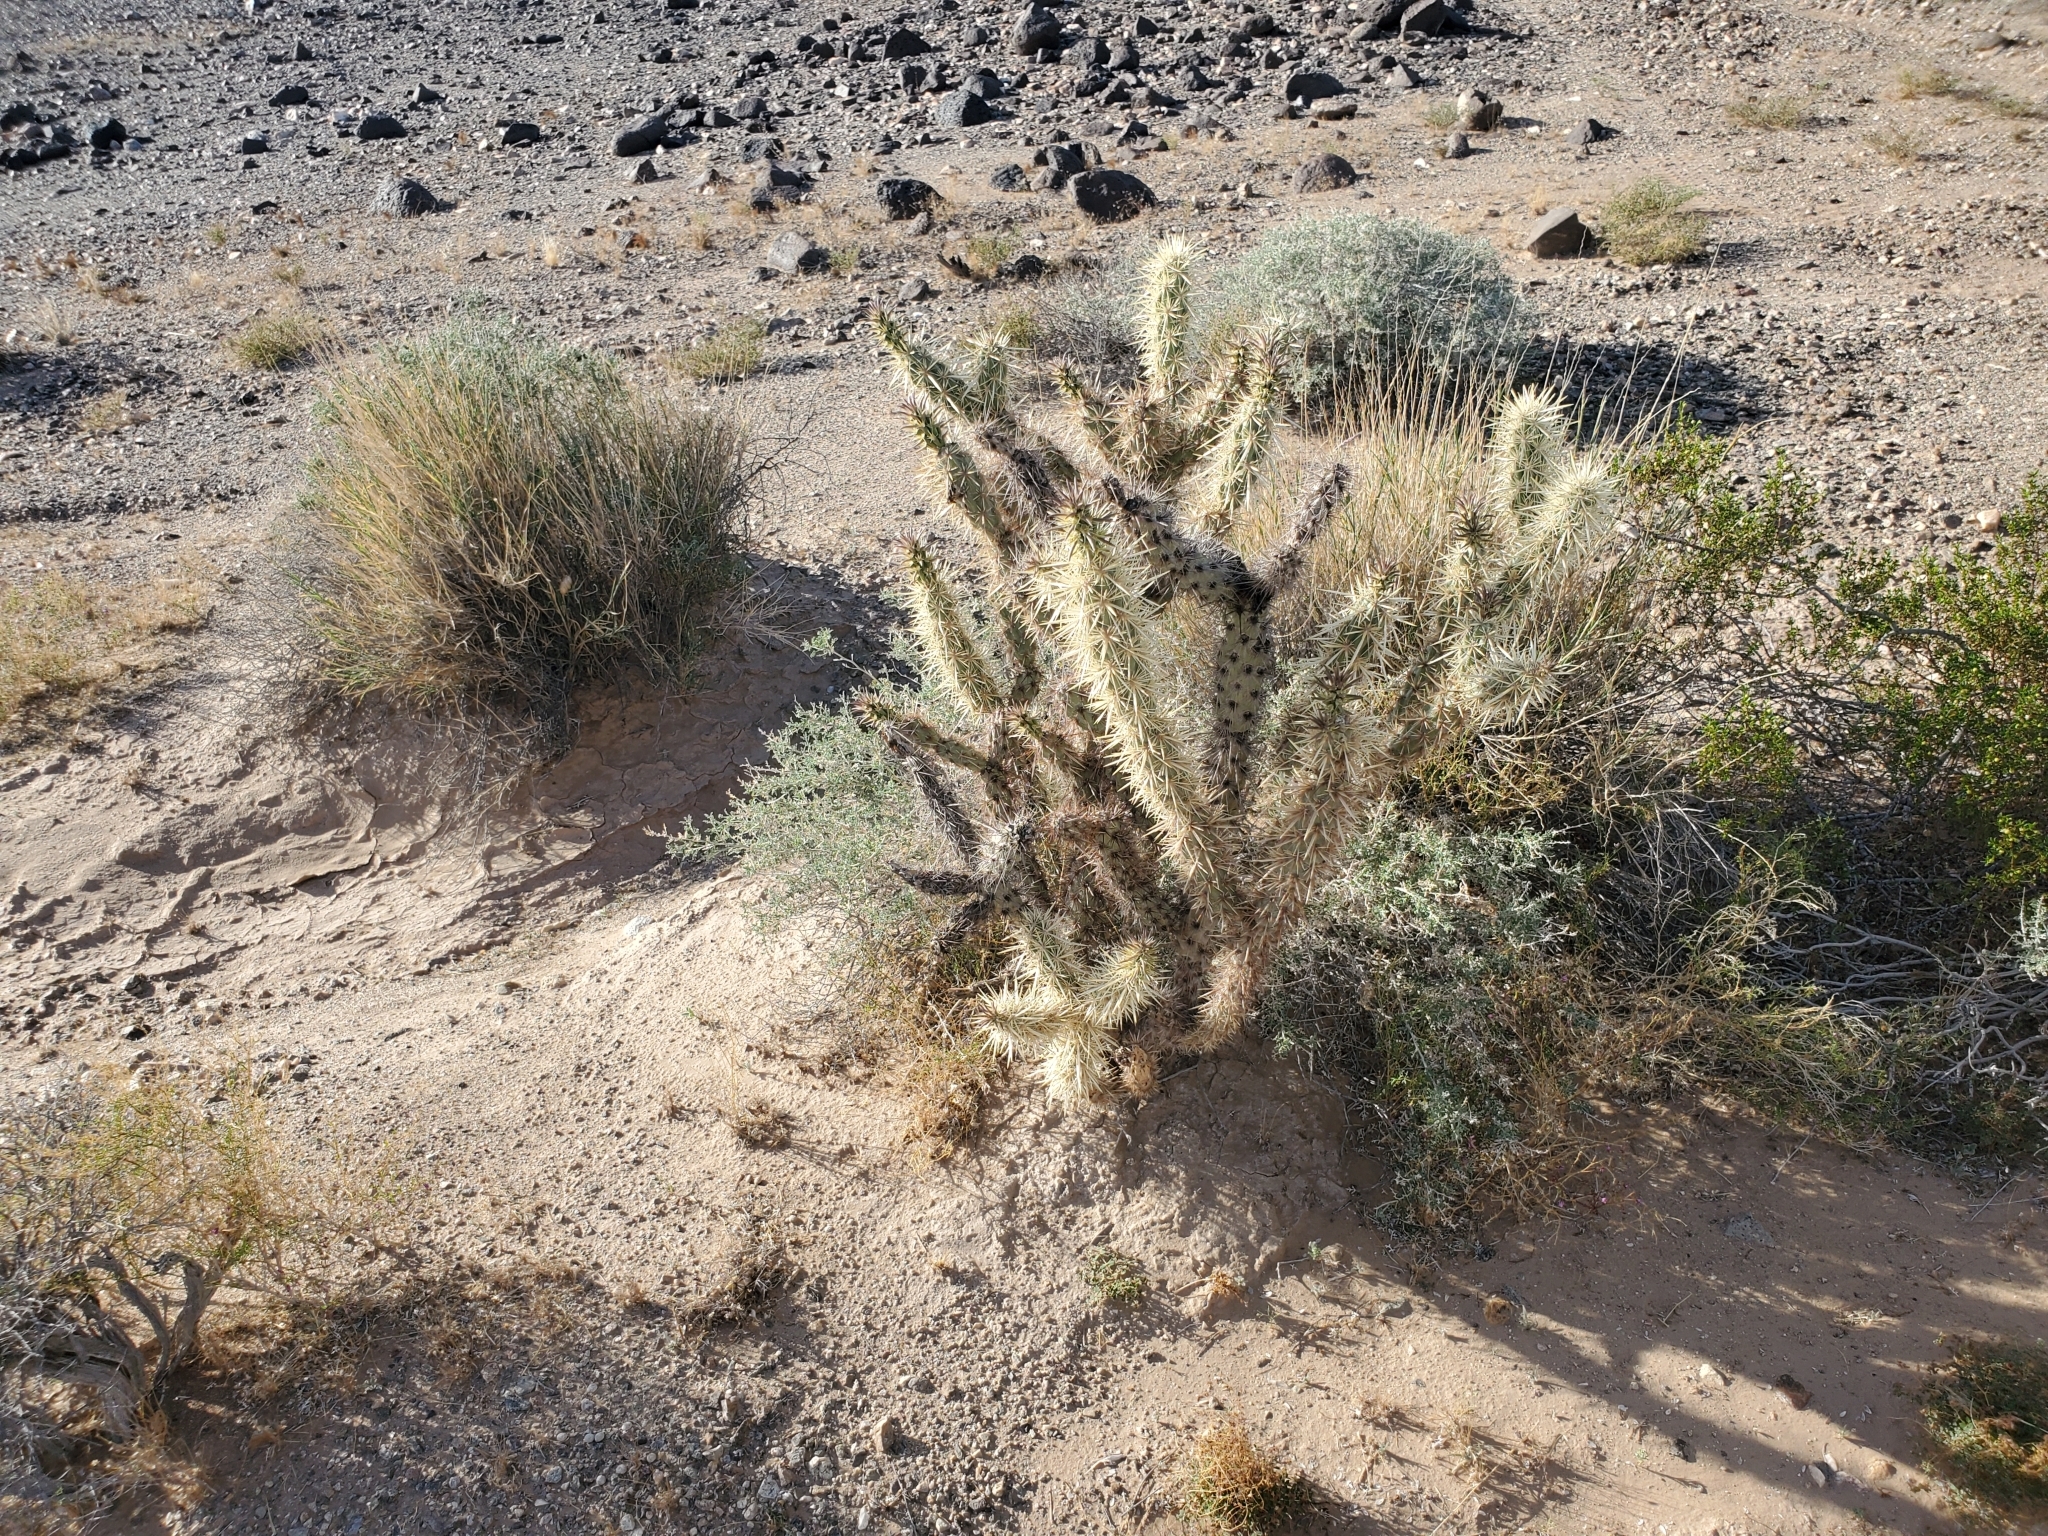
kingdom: Plantae
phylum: Tracheophyta
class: Magnoliopsida
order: Caryophyllales
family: Cactaceae
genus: Cylindropuntia
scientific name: Cylindropuntia acanthocarpa
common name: Buckhorn cholla
